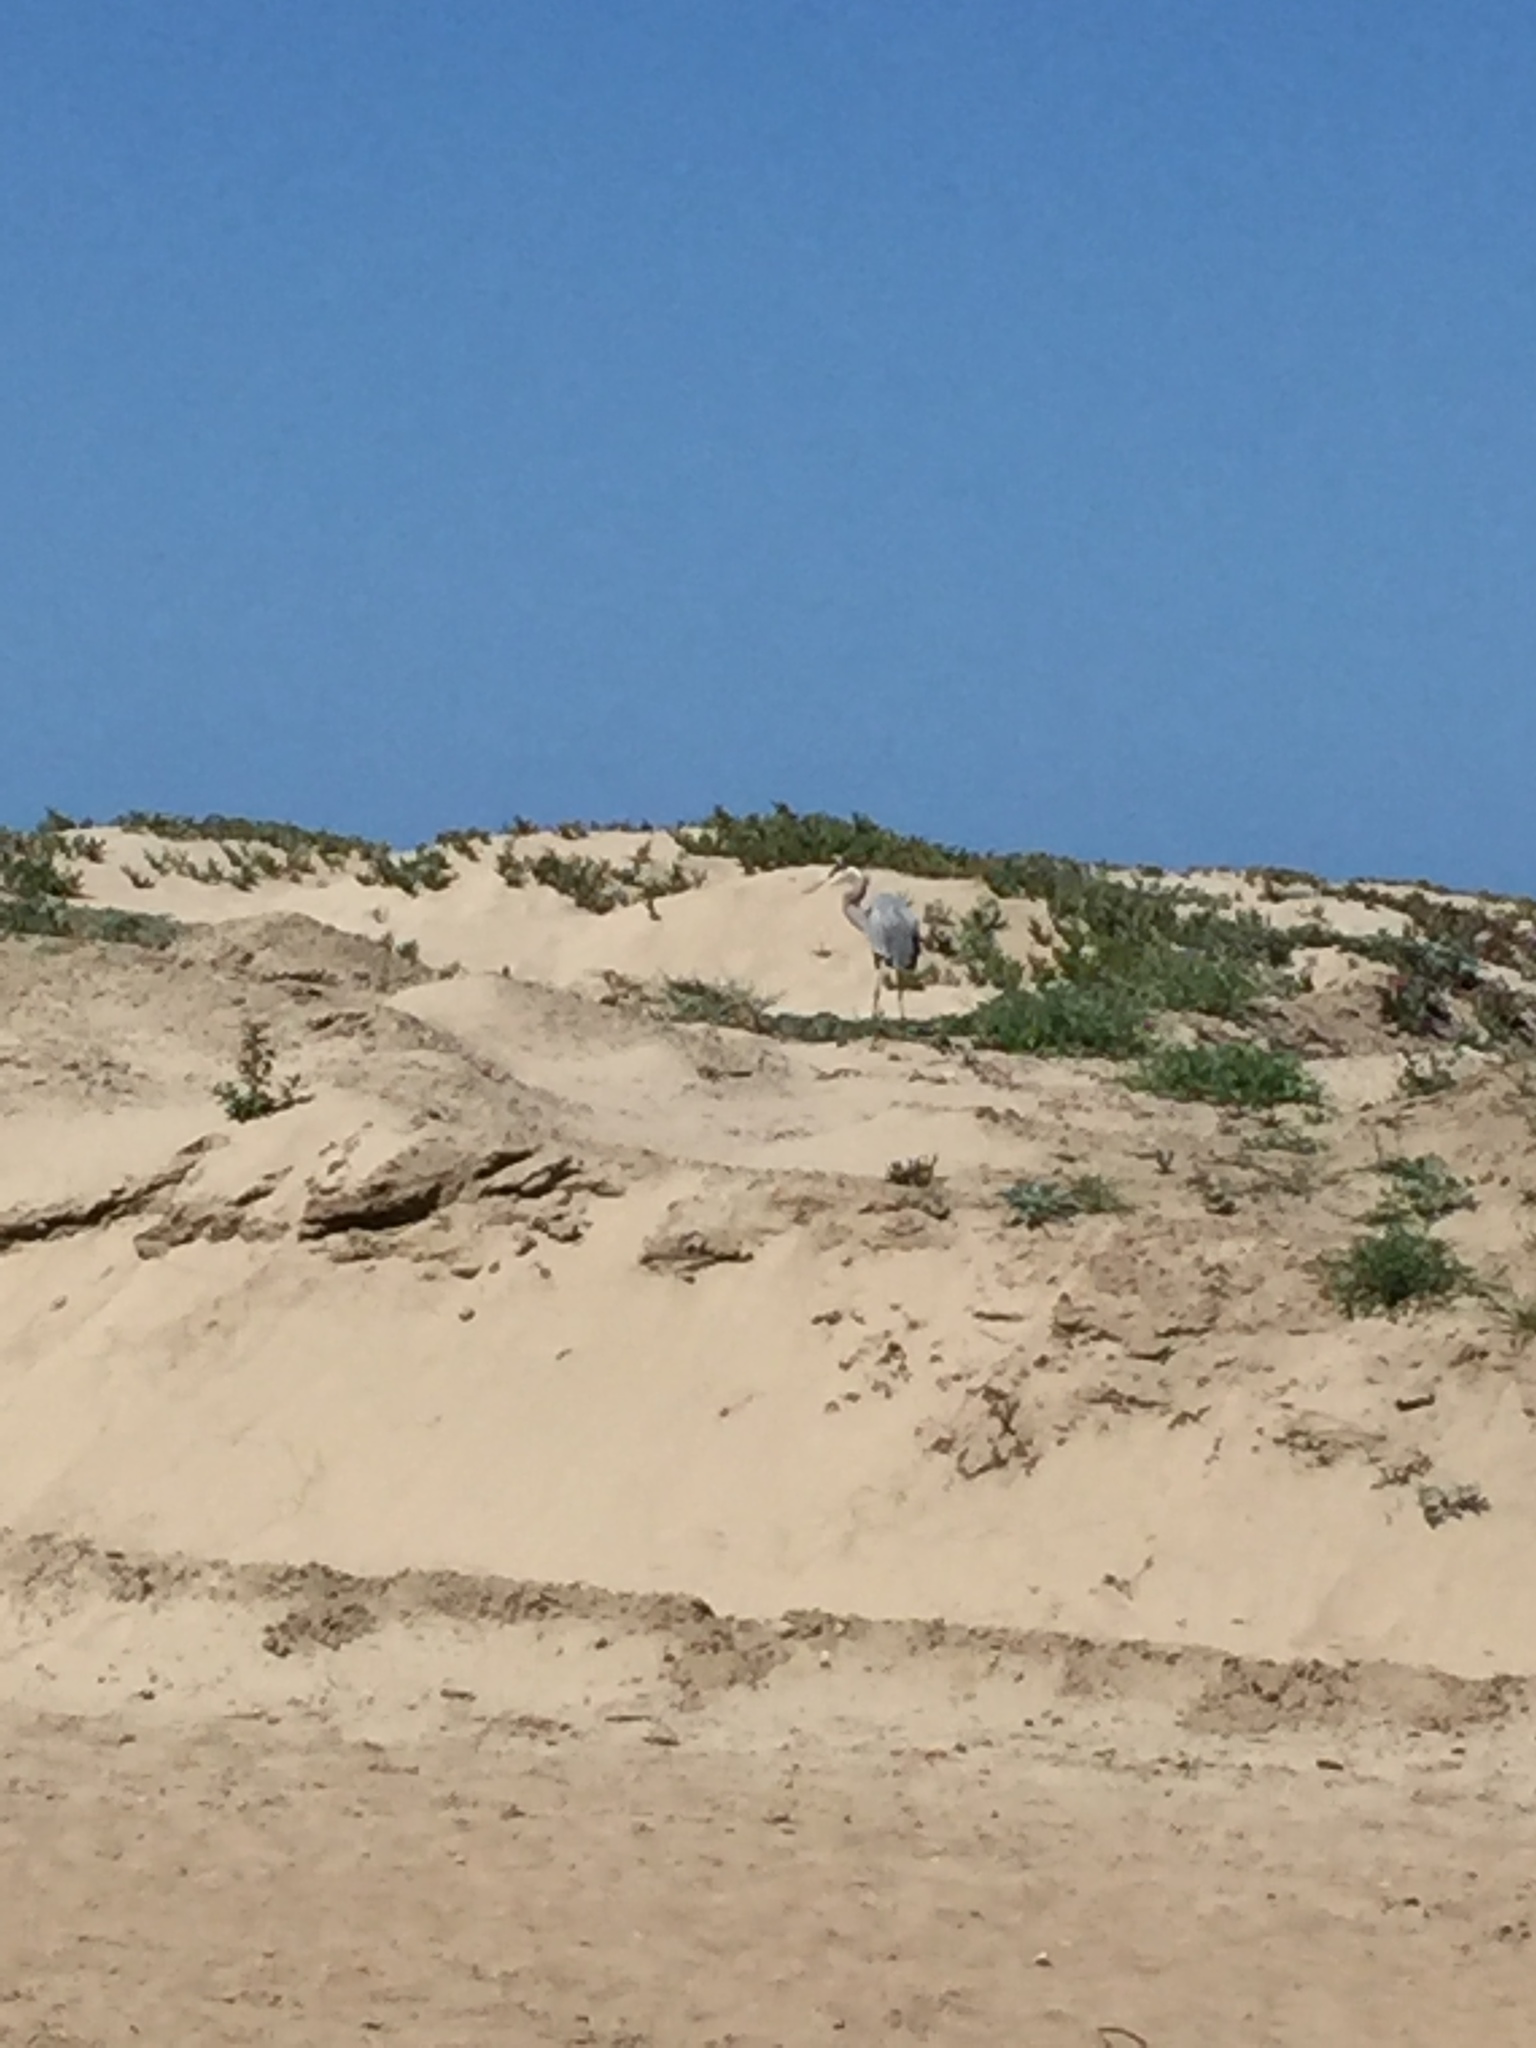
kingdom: Animalia
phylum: Chordata
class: Aves
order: Pelecaniformes
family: Ardeidae
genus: Ardea
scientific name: Ardea herodias
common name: Great blue heron
